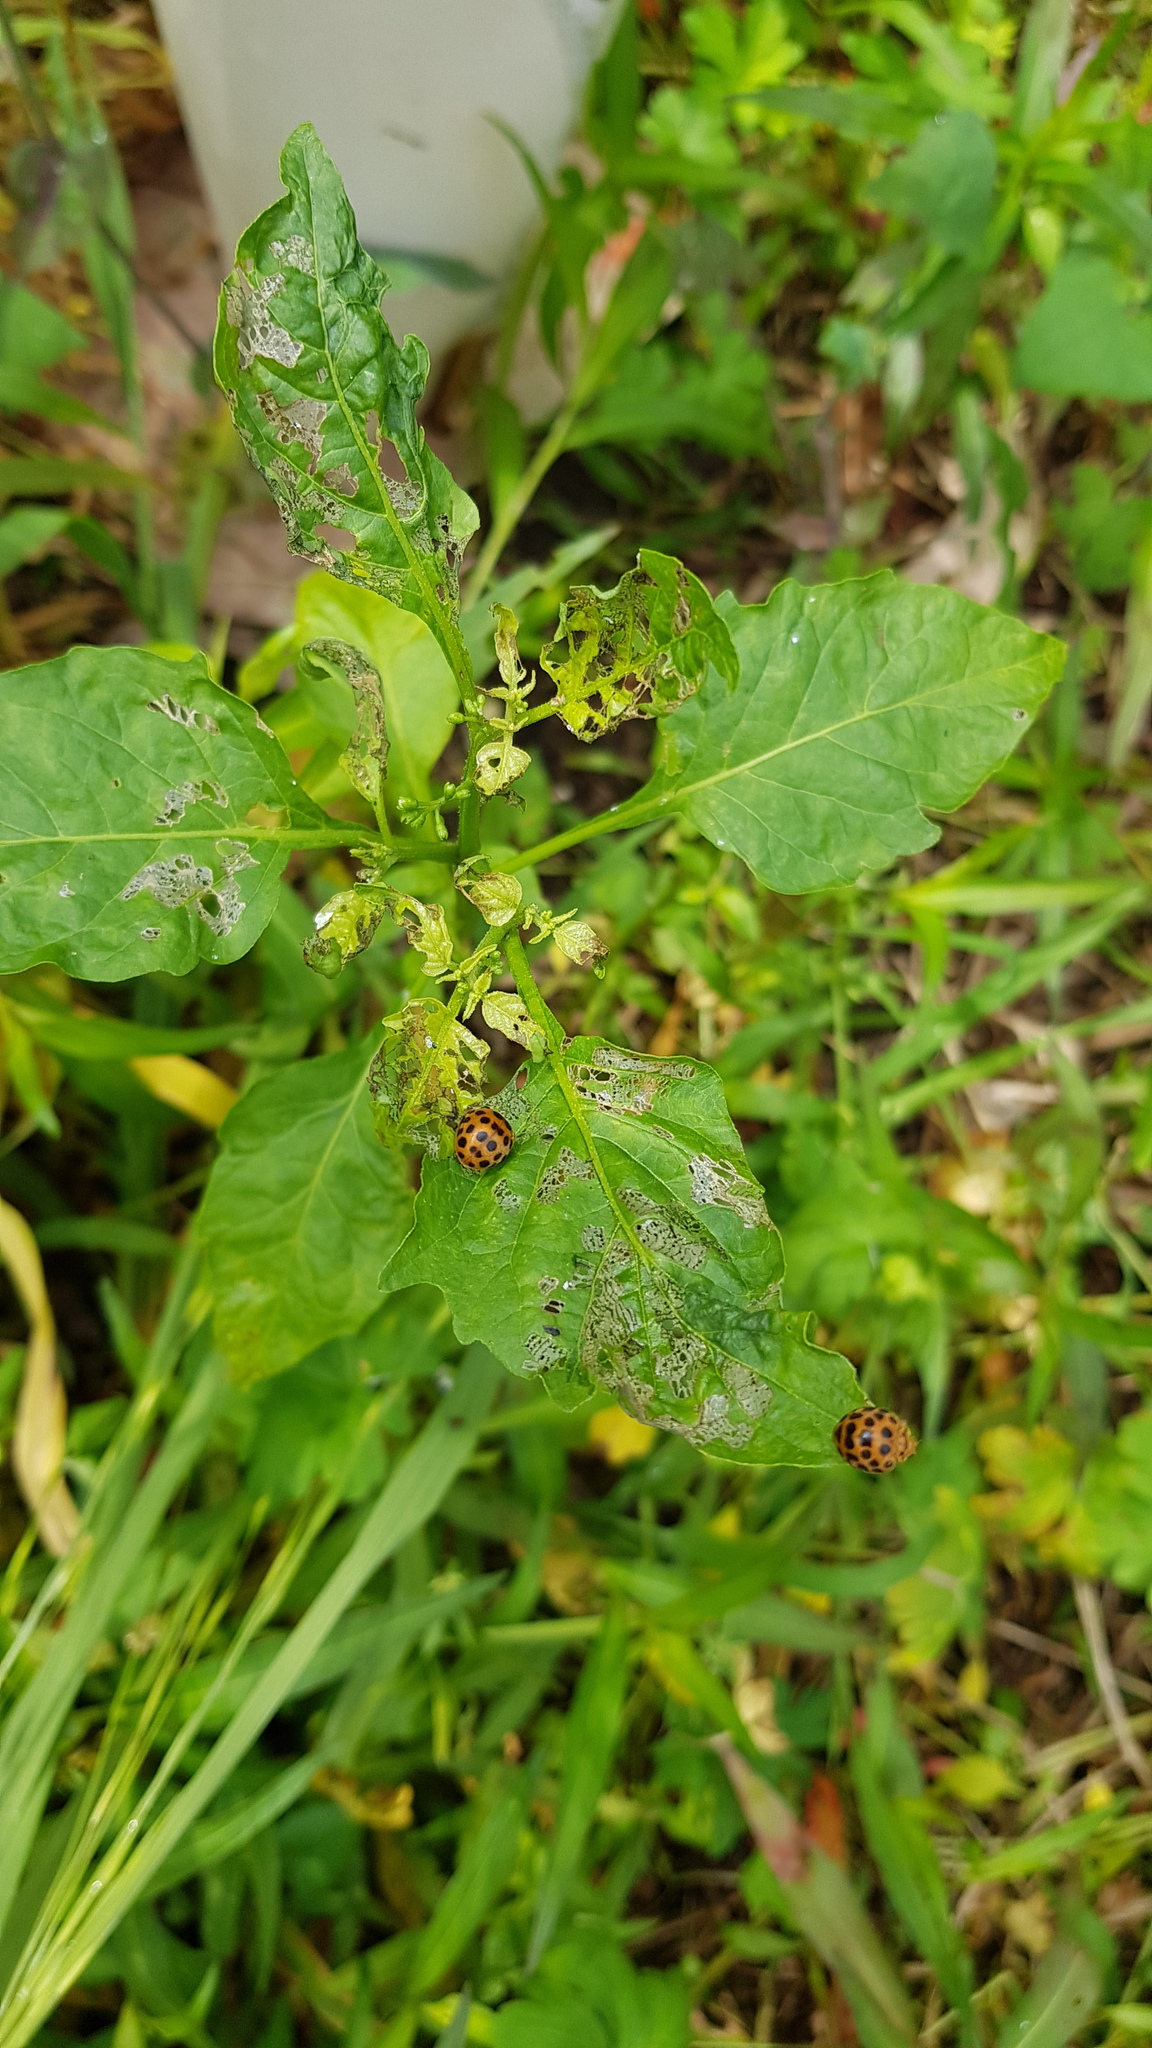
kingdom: Animalia
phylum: Arthropoda
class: Insecta
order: Coleoptera
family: Coccinellidae
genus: Henosepilachna
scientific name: Henosepilachna vigintioctopunctata
